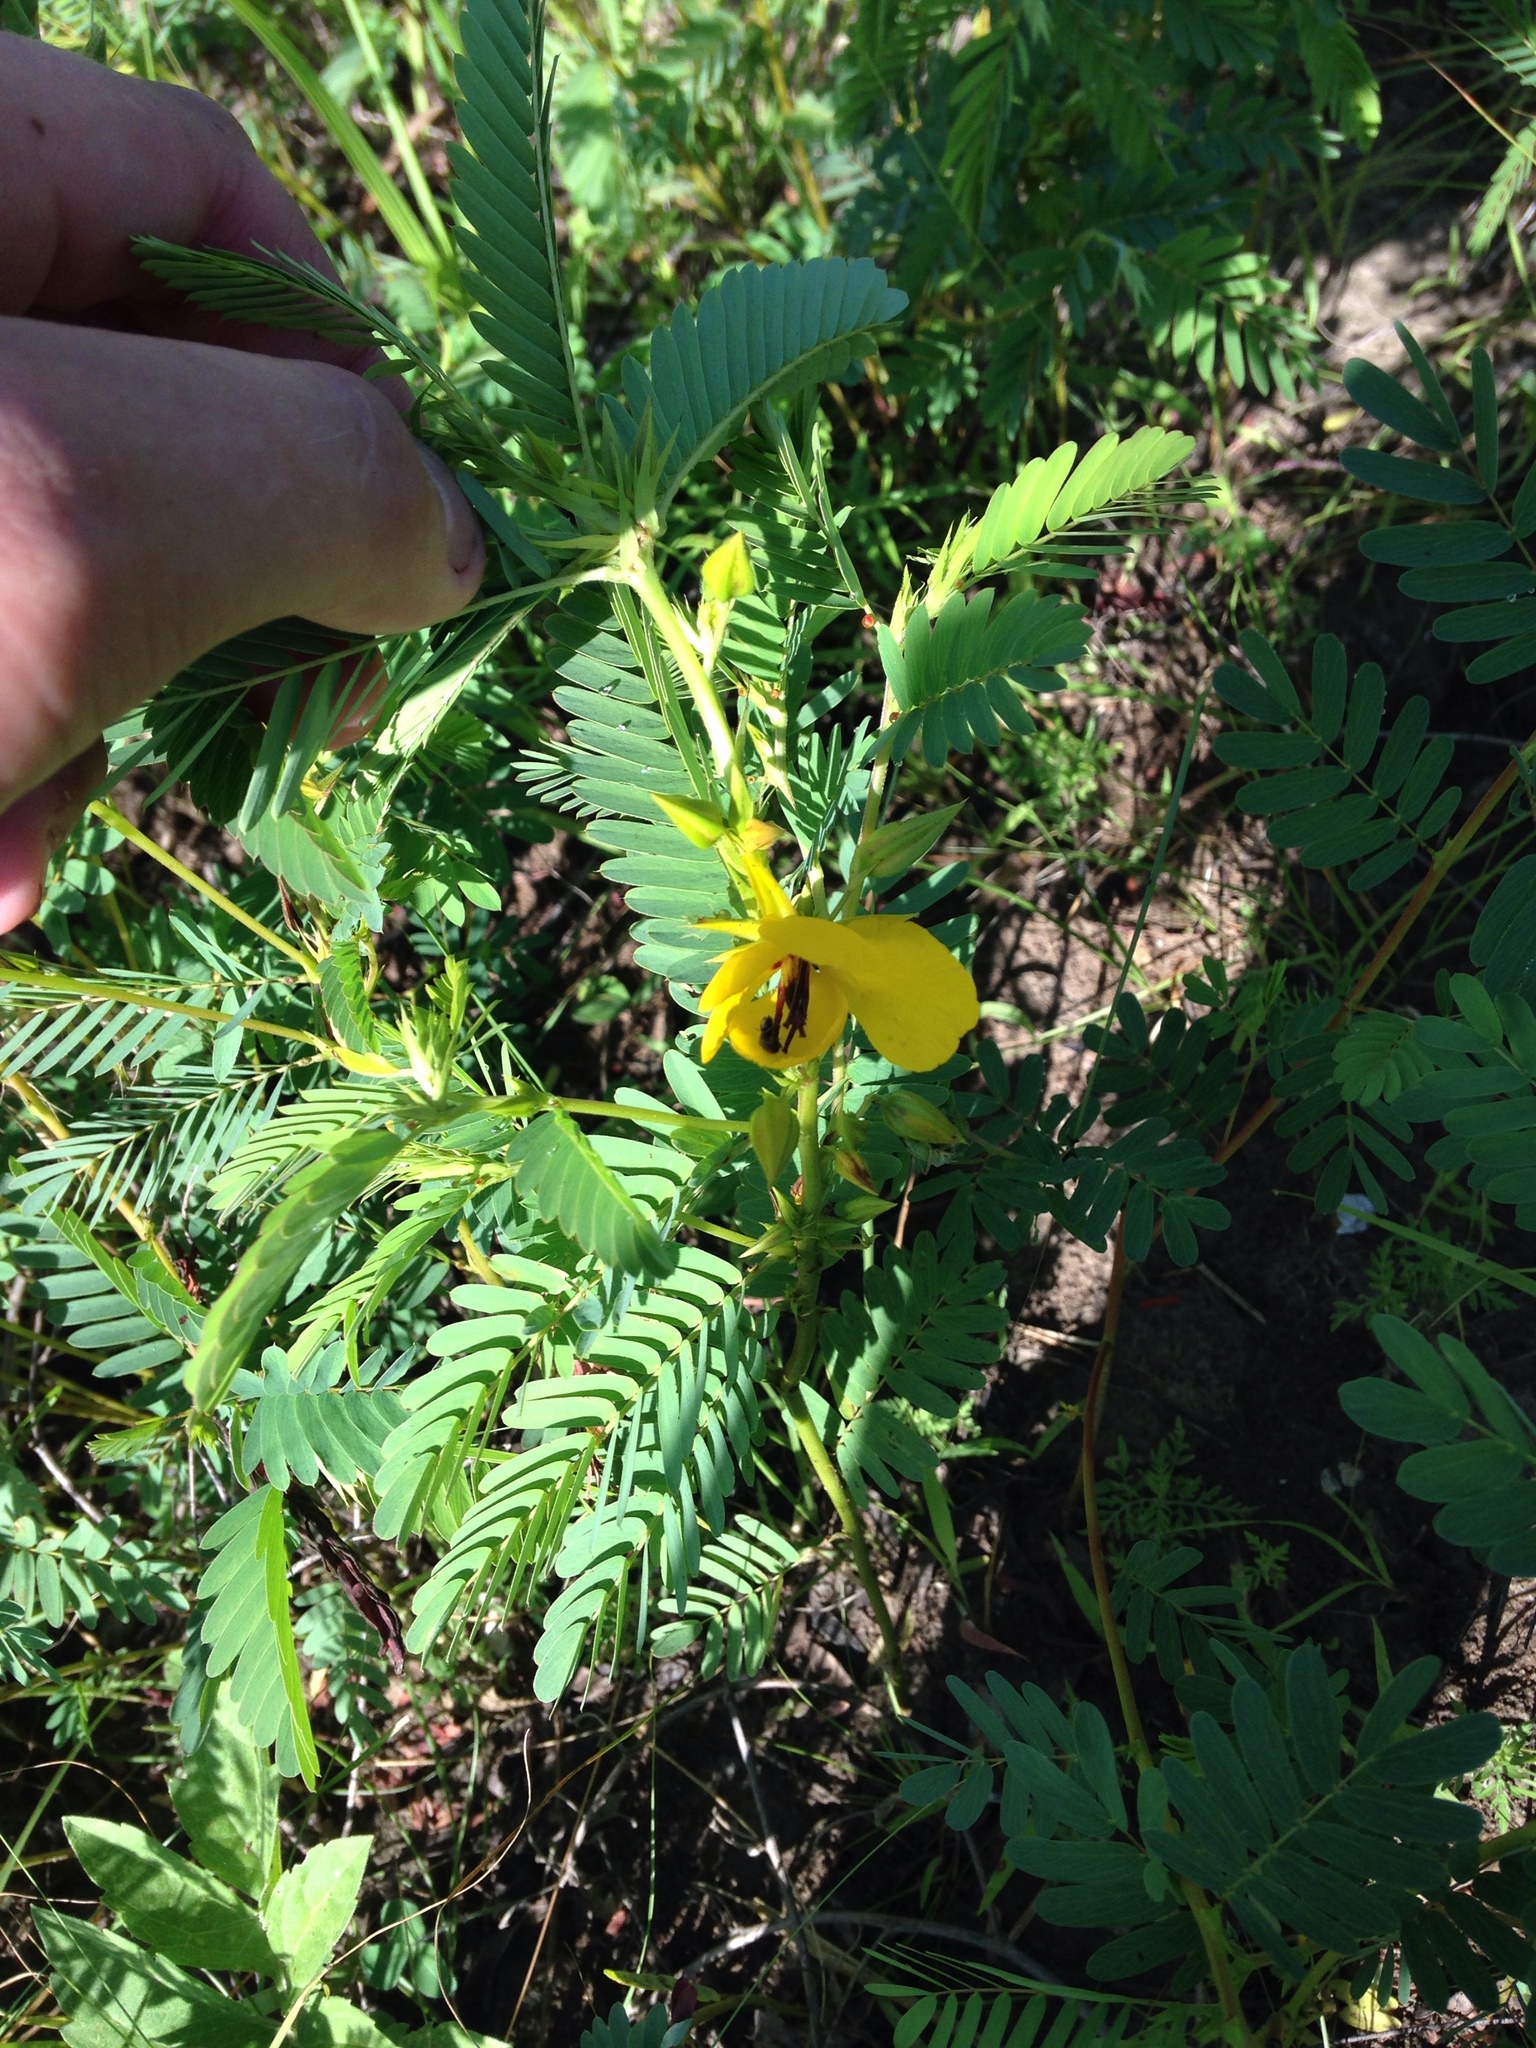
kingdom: Plantae
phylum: Tracheophyta
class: Magnoliopsida
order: Fabales
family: Fabaceae
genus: Chamaecrista
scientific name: Chamaecrista fasciculata
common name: Golden cassia
